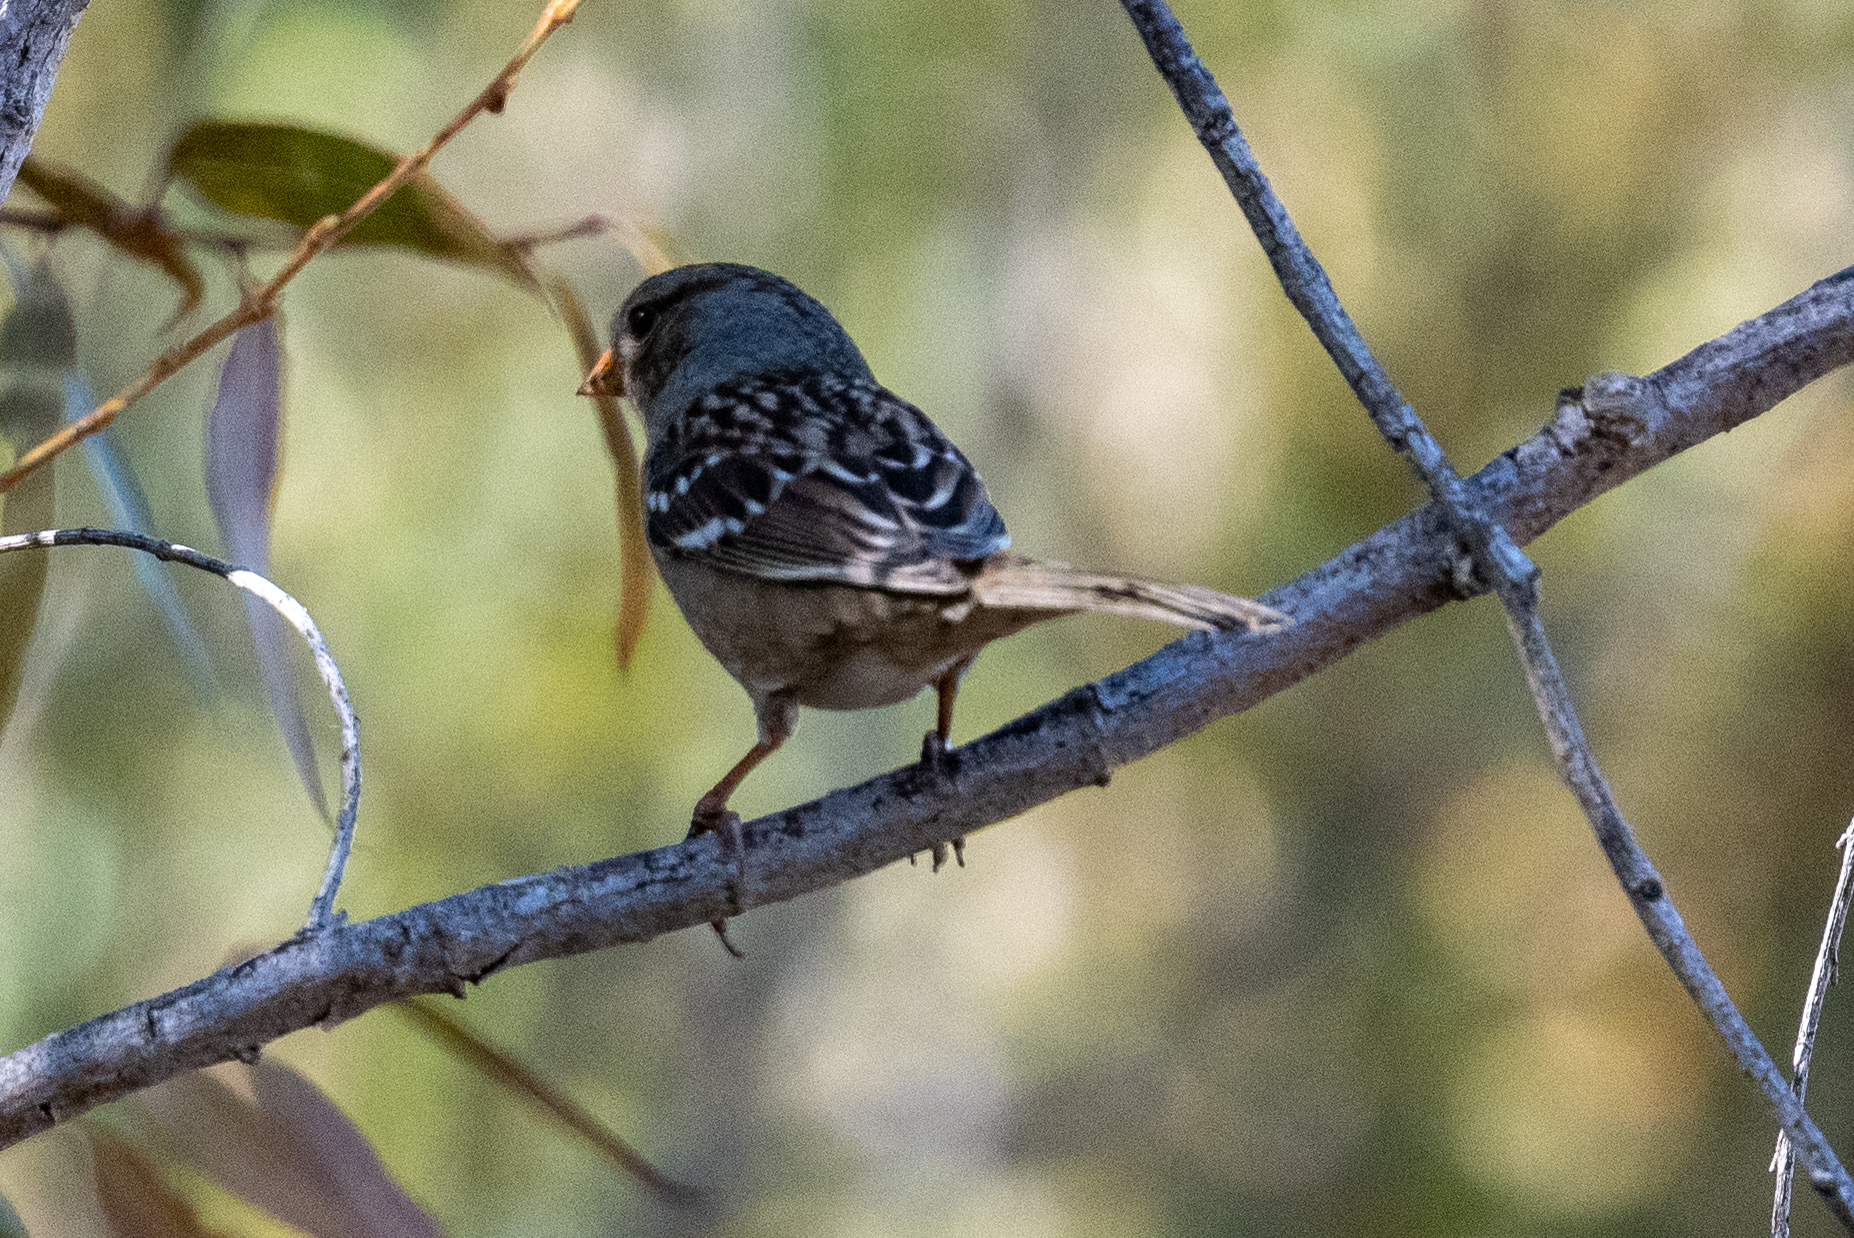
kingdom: Animalia
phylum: Chordata
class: Aves
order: Passeriformes
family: Passerellidae
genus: Zonotrichia
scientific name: Zonotrichia leucophrys
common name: White-crowned sparrow
